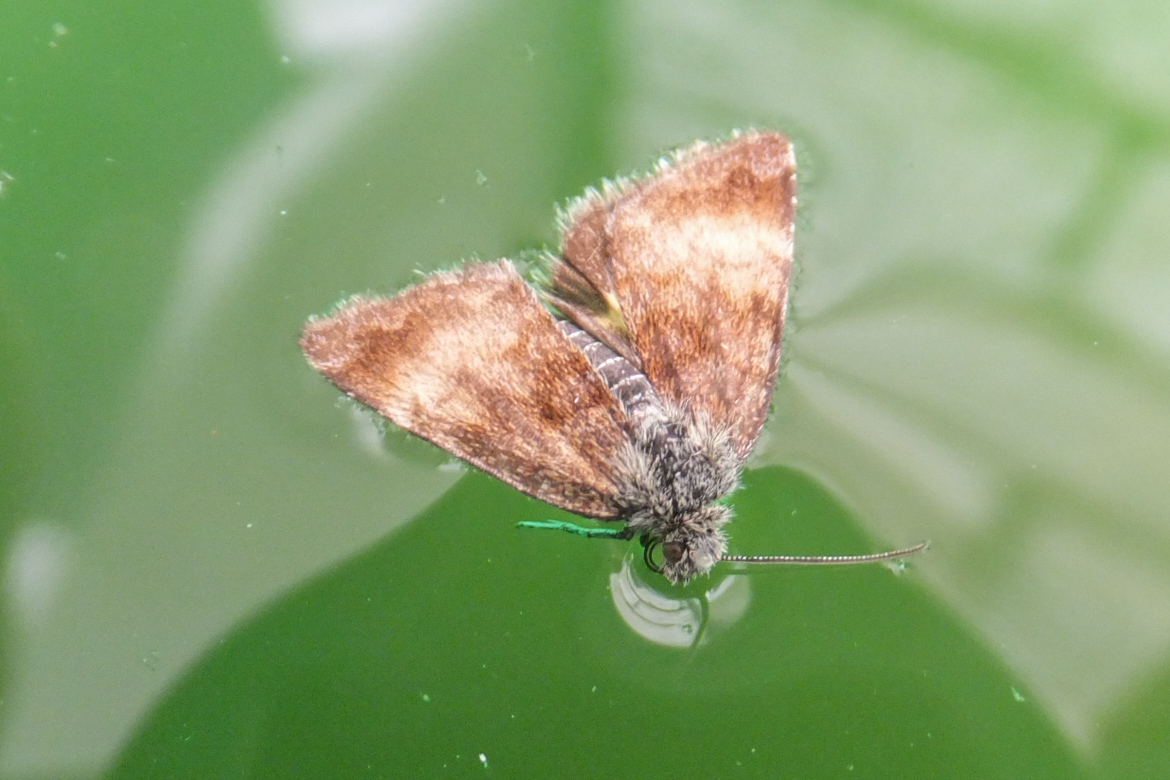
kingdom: Animalia
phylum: Arthropoda
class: Insecta
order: Lepidoptera
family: Noctuidae
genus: Panemeria
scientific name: Panemeria tenebrata
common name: Small yellow underwing
